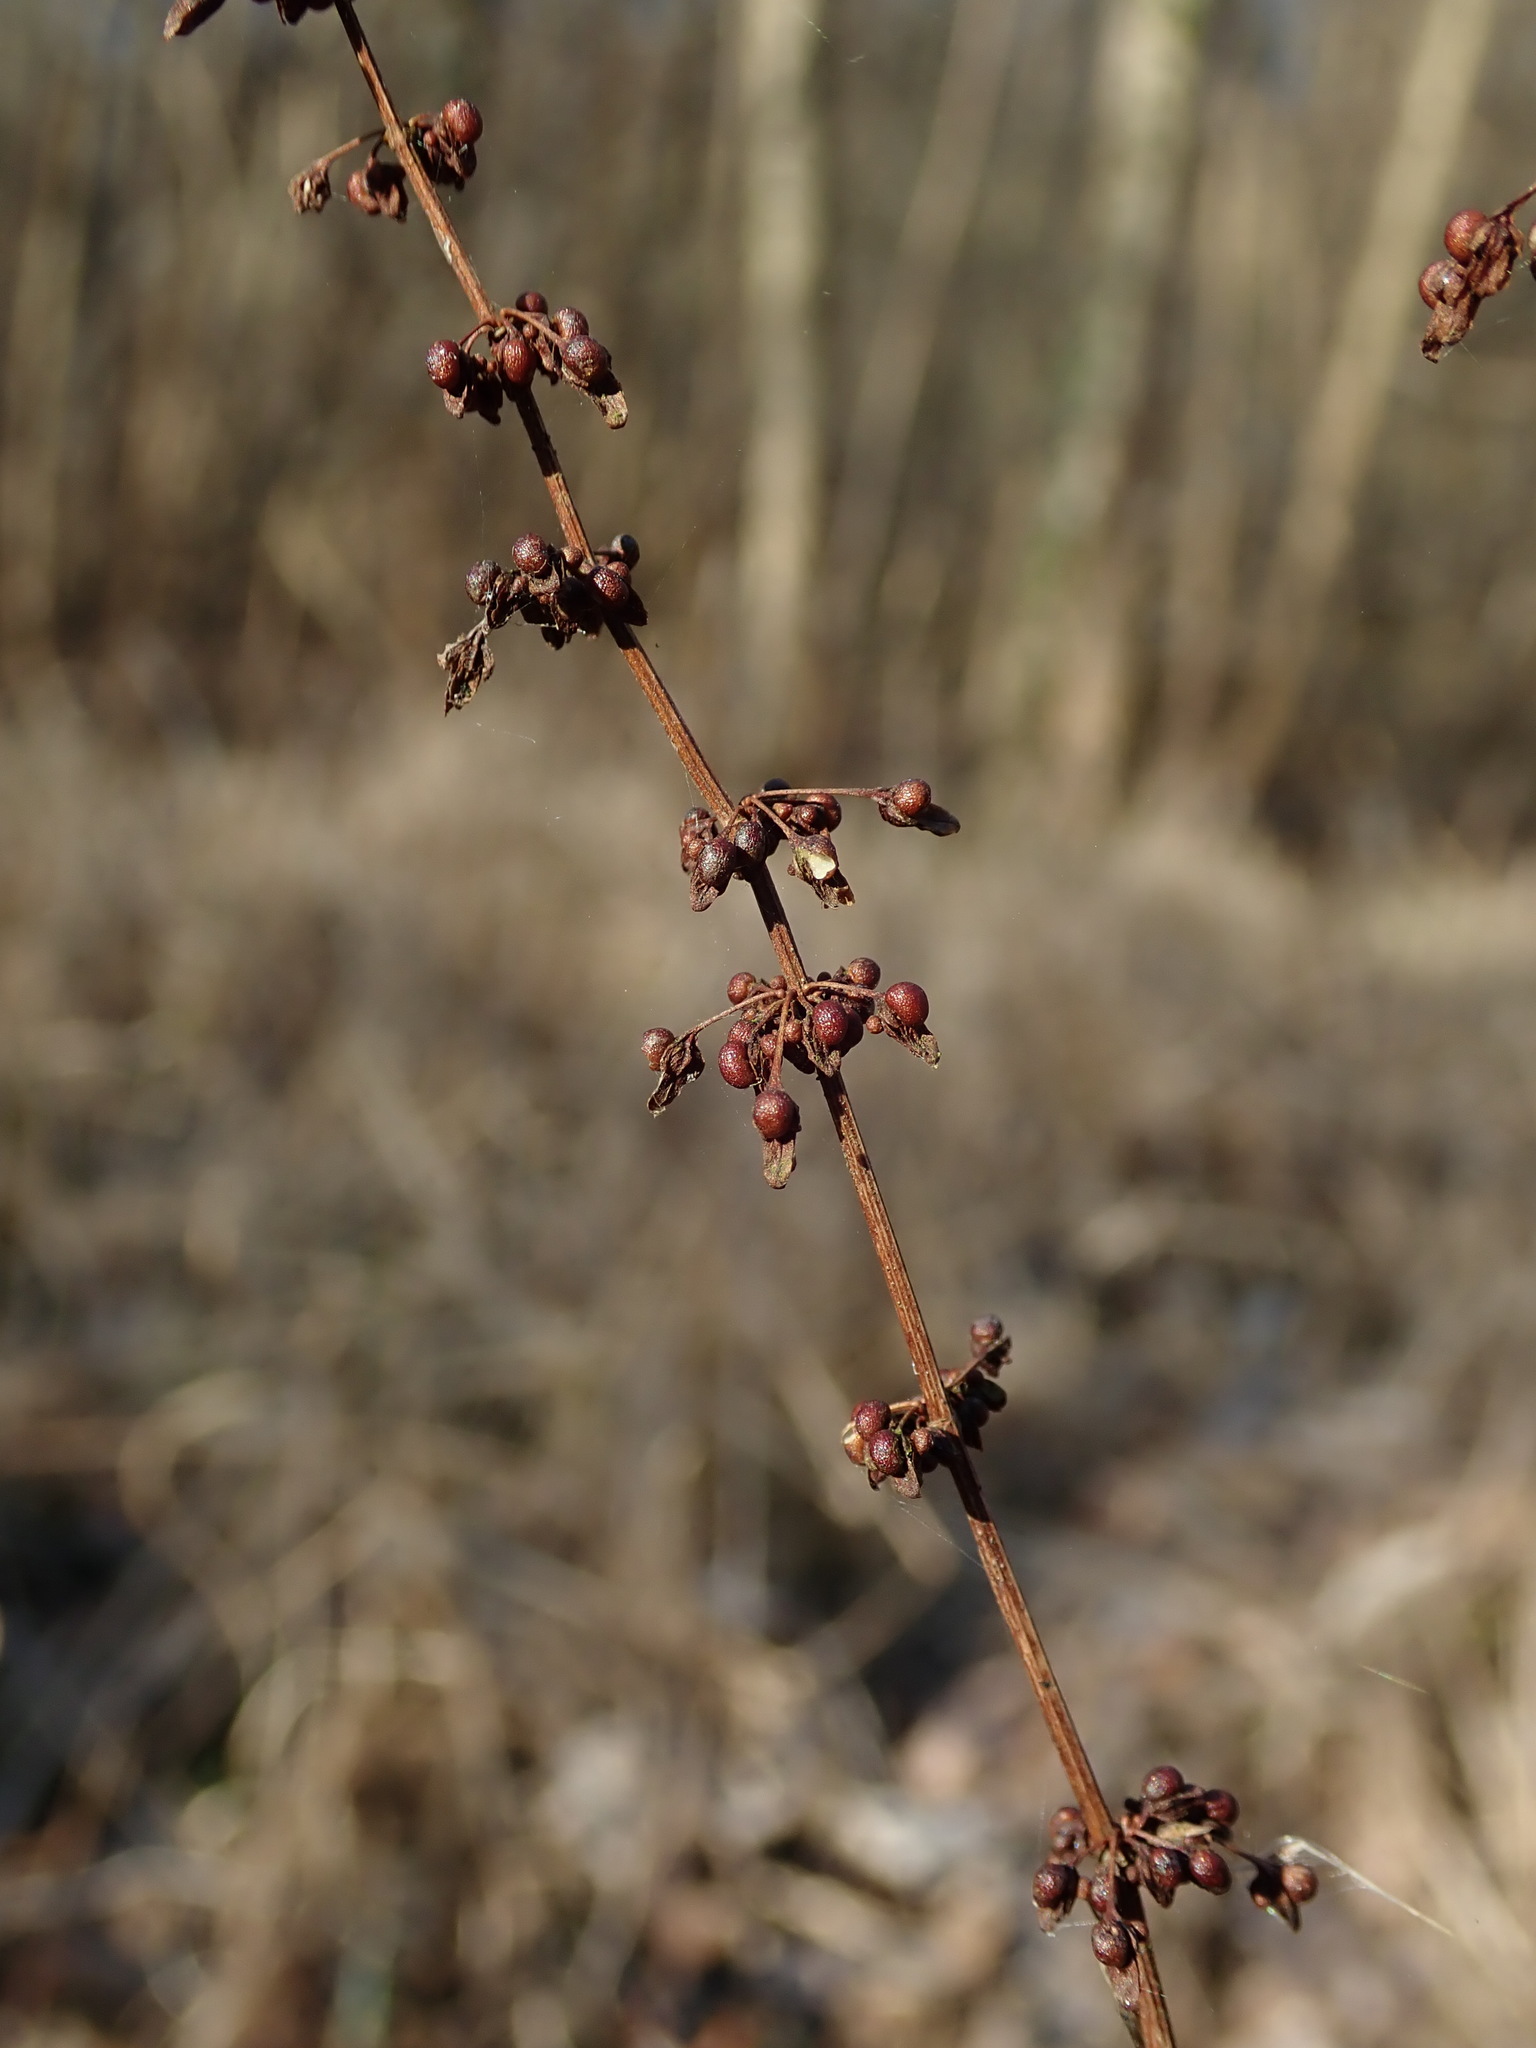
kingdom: Plantae
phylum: Tracheophyta
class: Magnoliopsida
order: Caryophyllales
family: Polygonaceae
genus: Rumex
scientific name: Rumex sanguineus
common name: Wood dock
